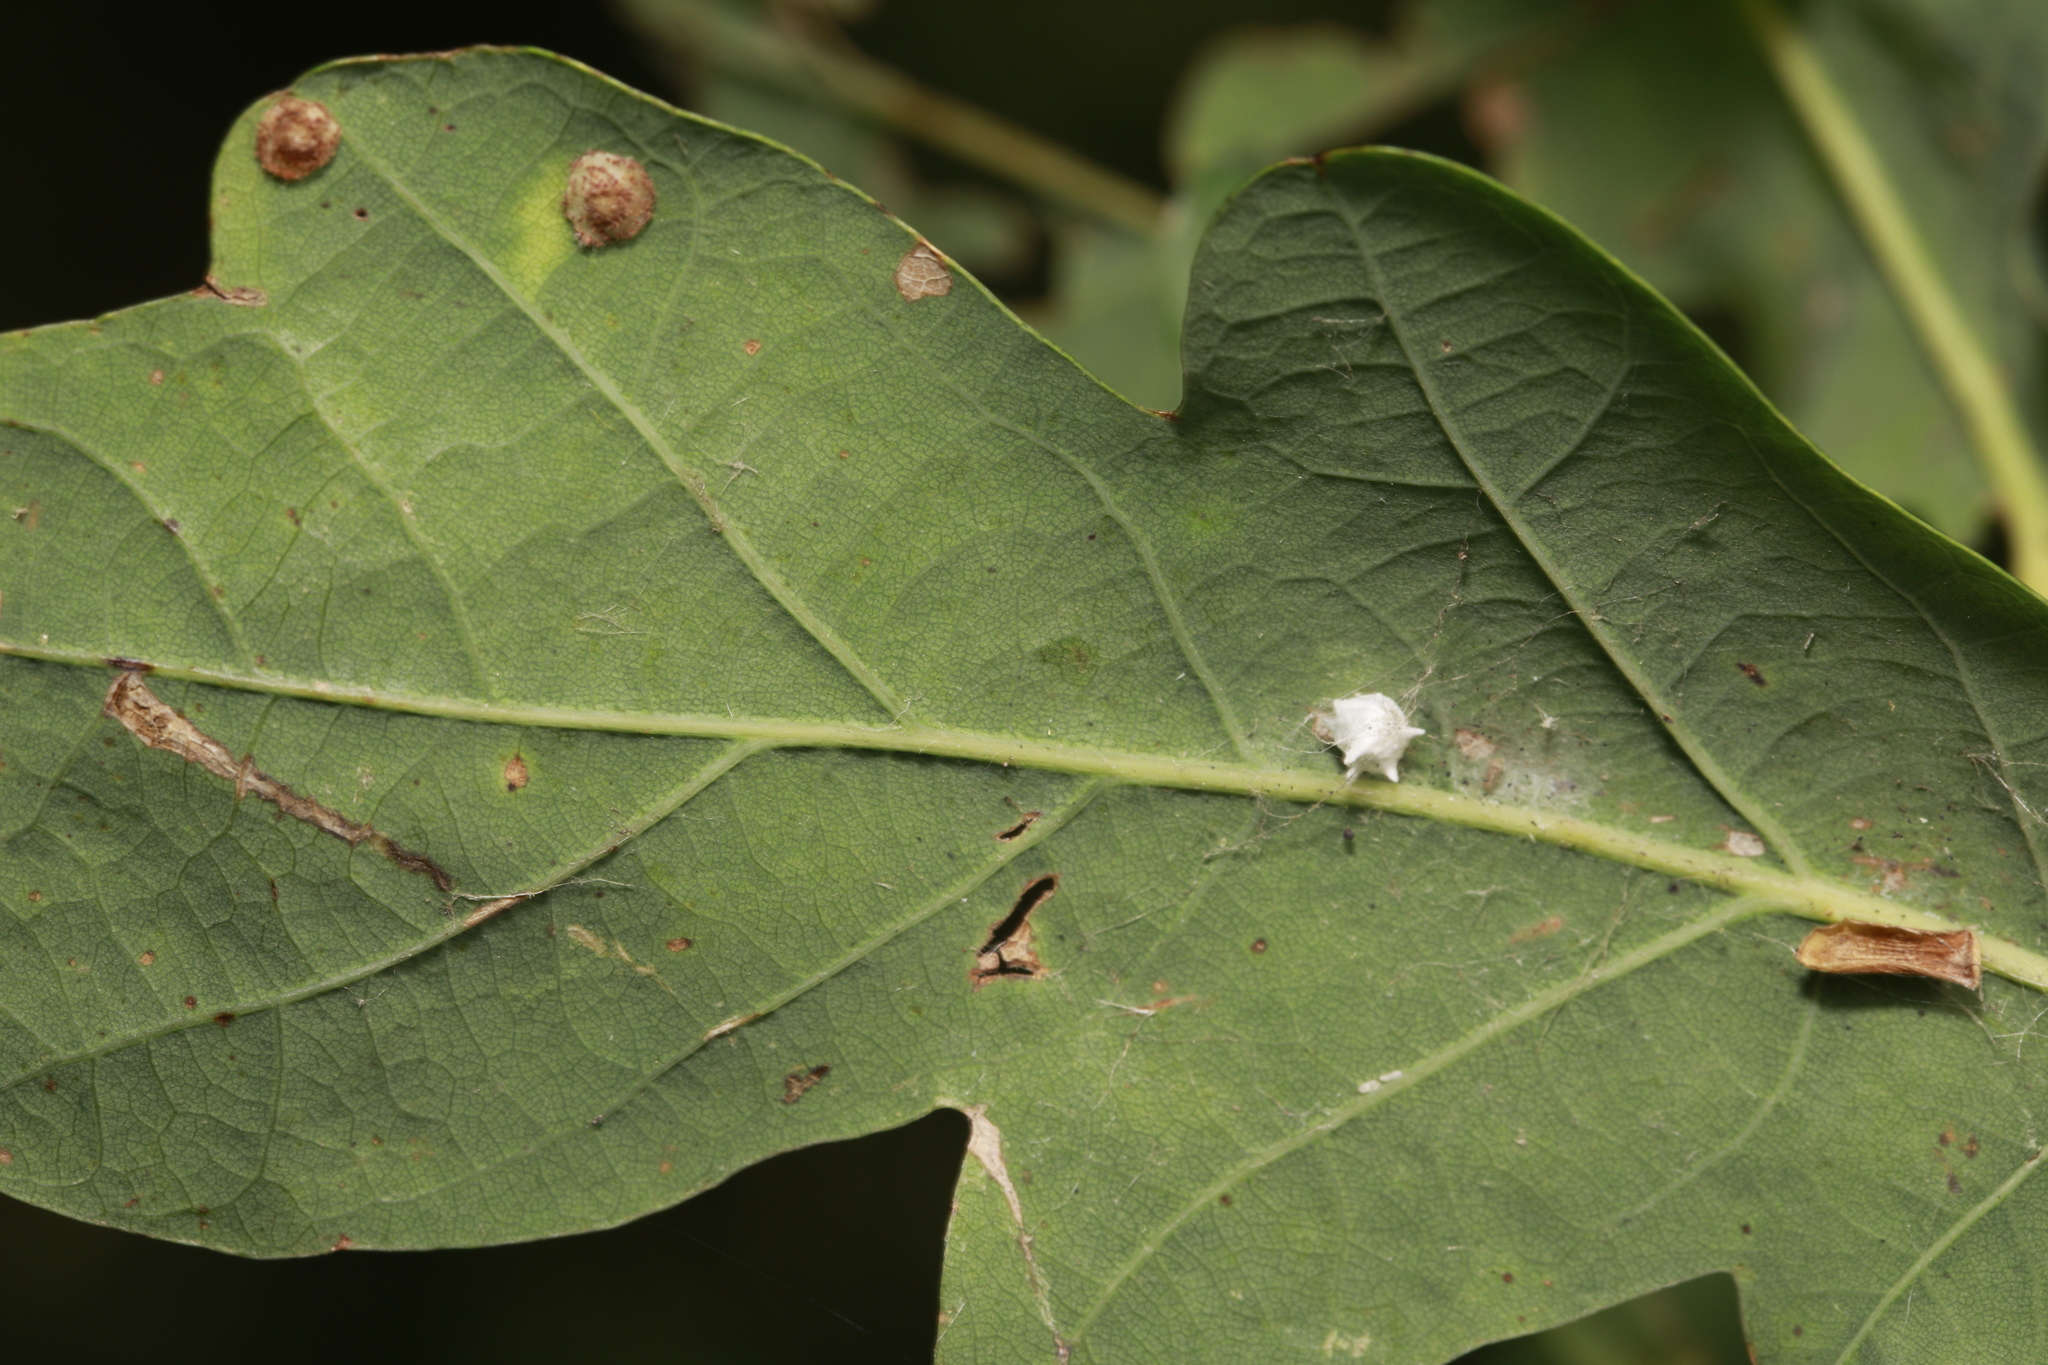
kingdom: Animalia
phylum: Arthropoda
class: Arachnida
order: Araneae
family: Theridiidae
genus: Paidiscura
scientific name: Paidiscura pallens
